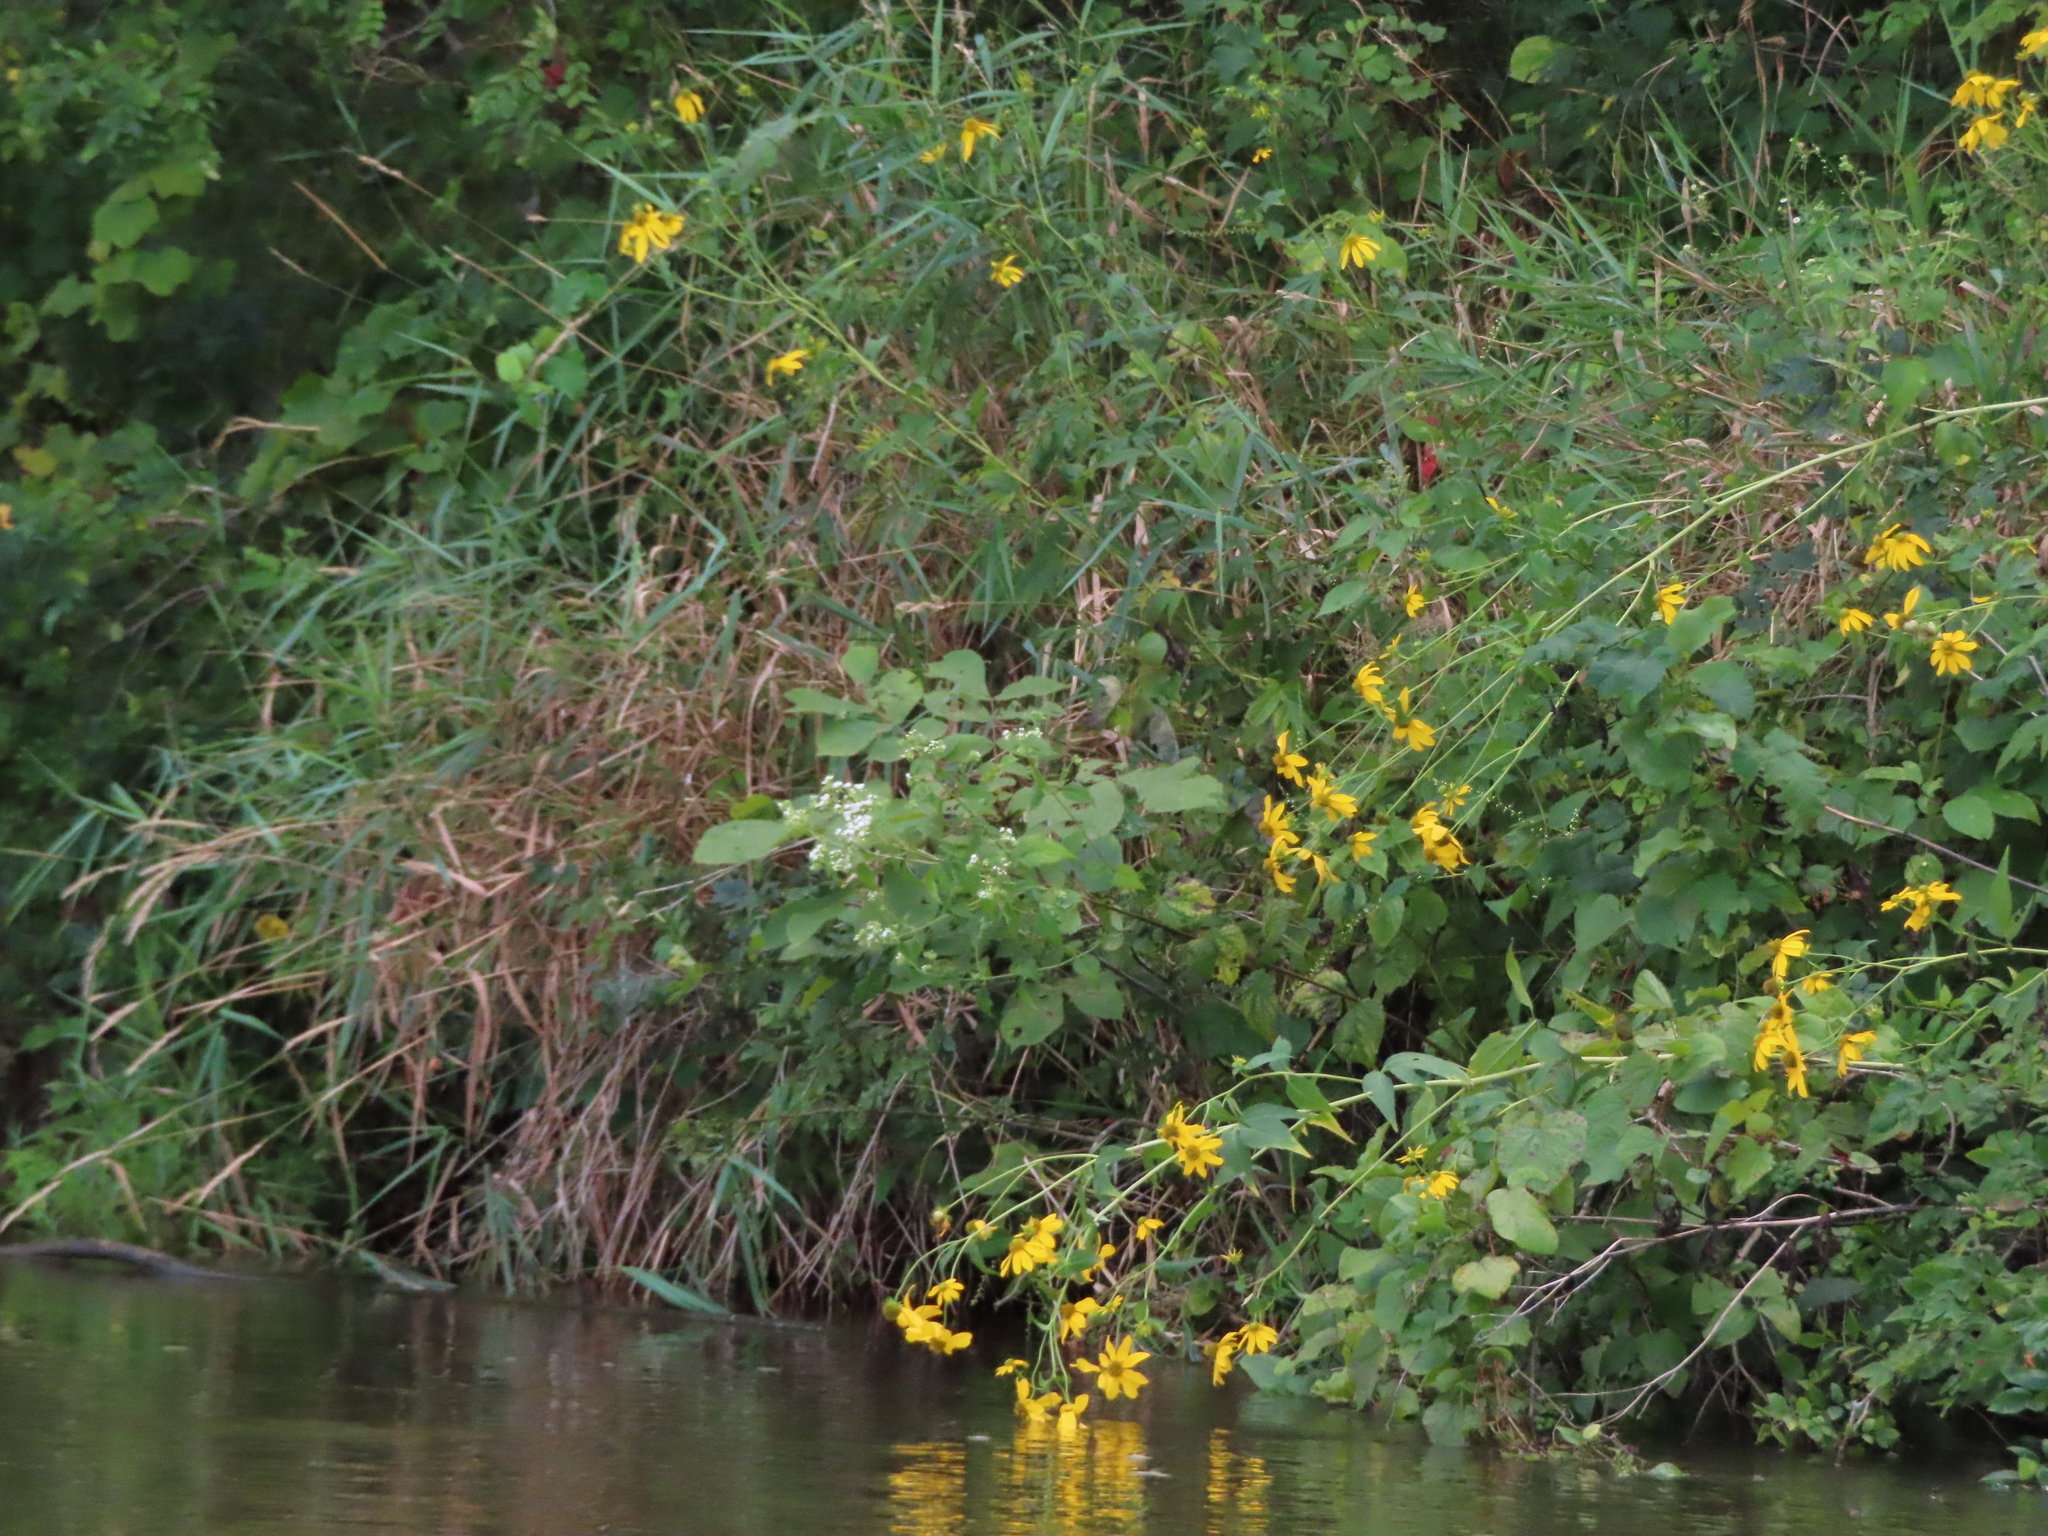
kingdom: Plantae
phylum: Tracheophyta
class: Magnoliopsida
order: Asterales
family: Asteraceae
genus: Ageratina
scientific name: Ageratina altissima
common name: White snakeroot
